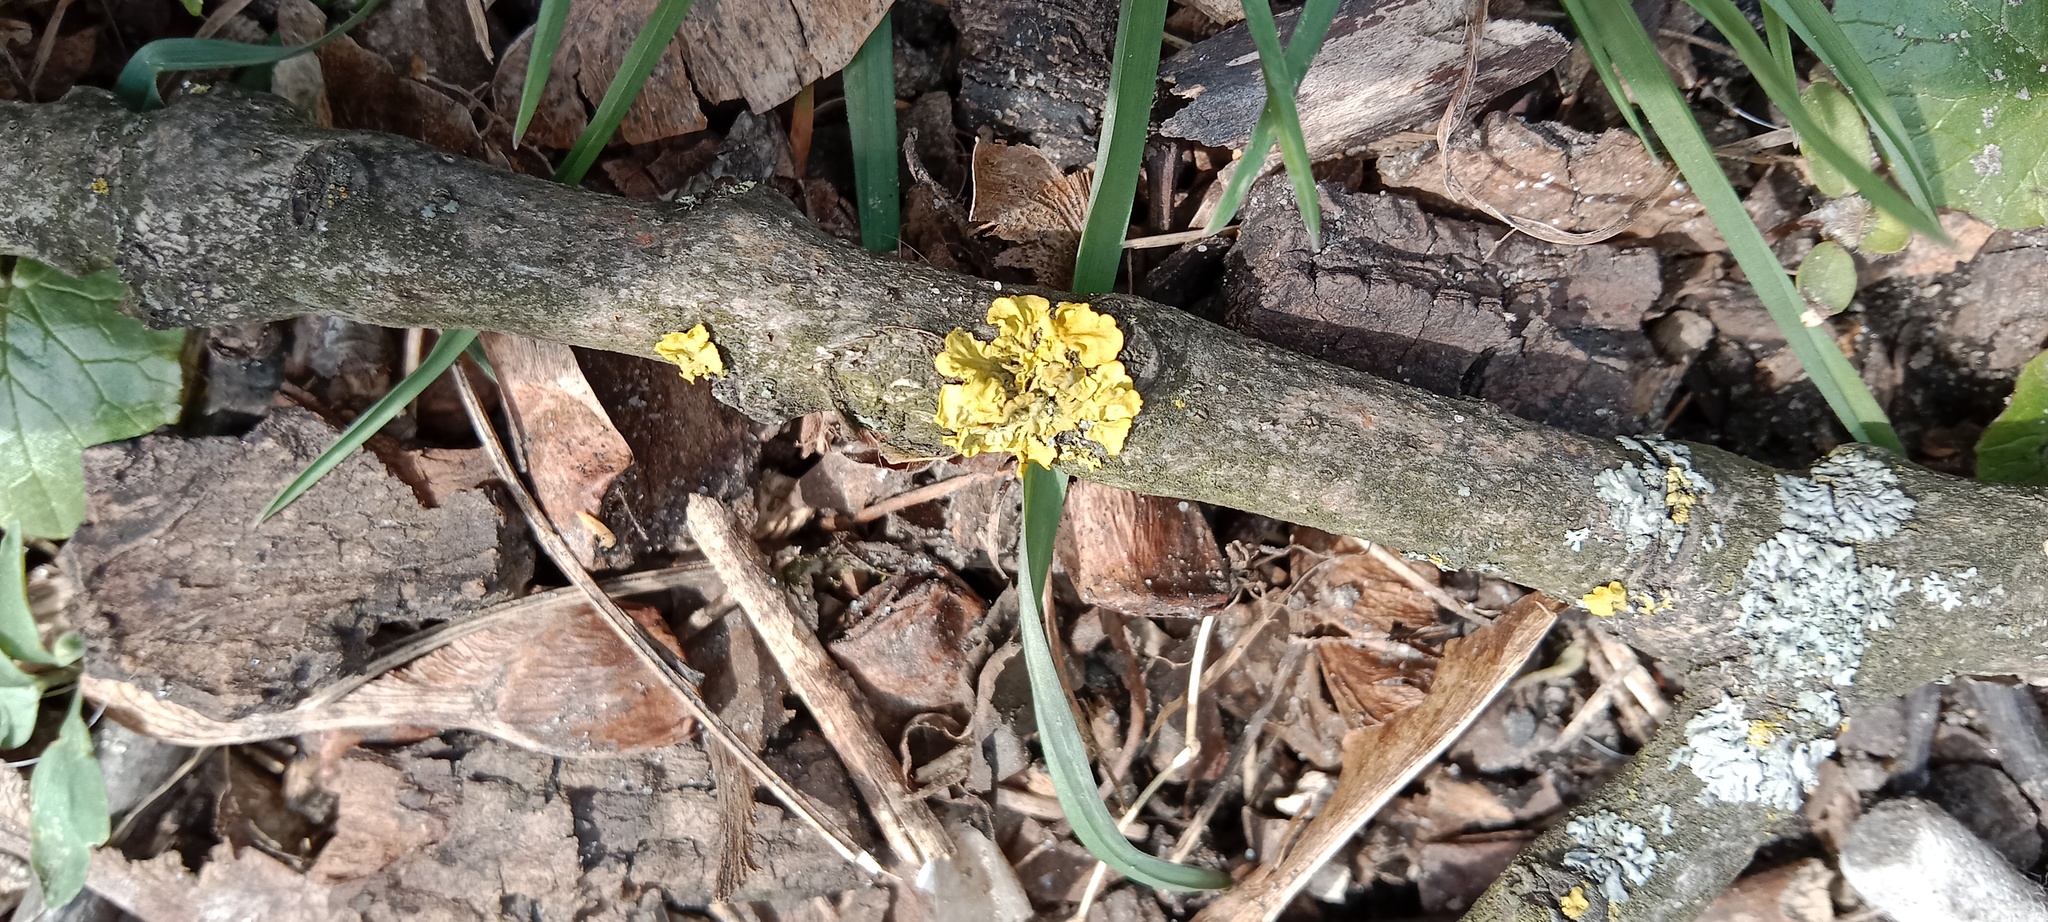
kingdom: Plantae
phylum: Tracheophyta
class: Magnoliopsida
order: Ranunculales
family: Papaveraceae
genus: Corydalis
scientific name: Corydalis solida
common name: Bird-in-a-bush
